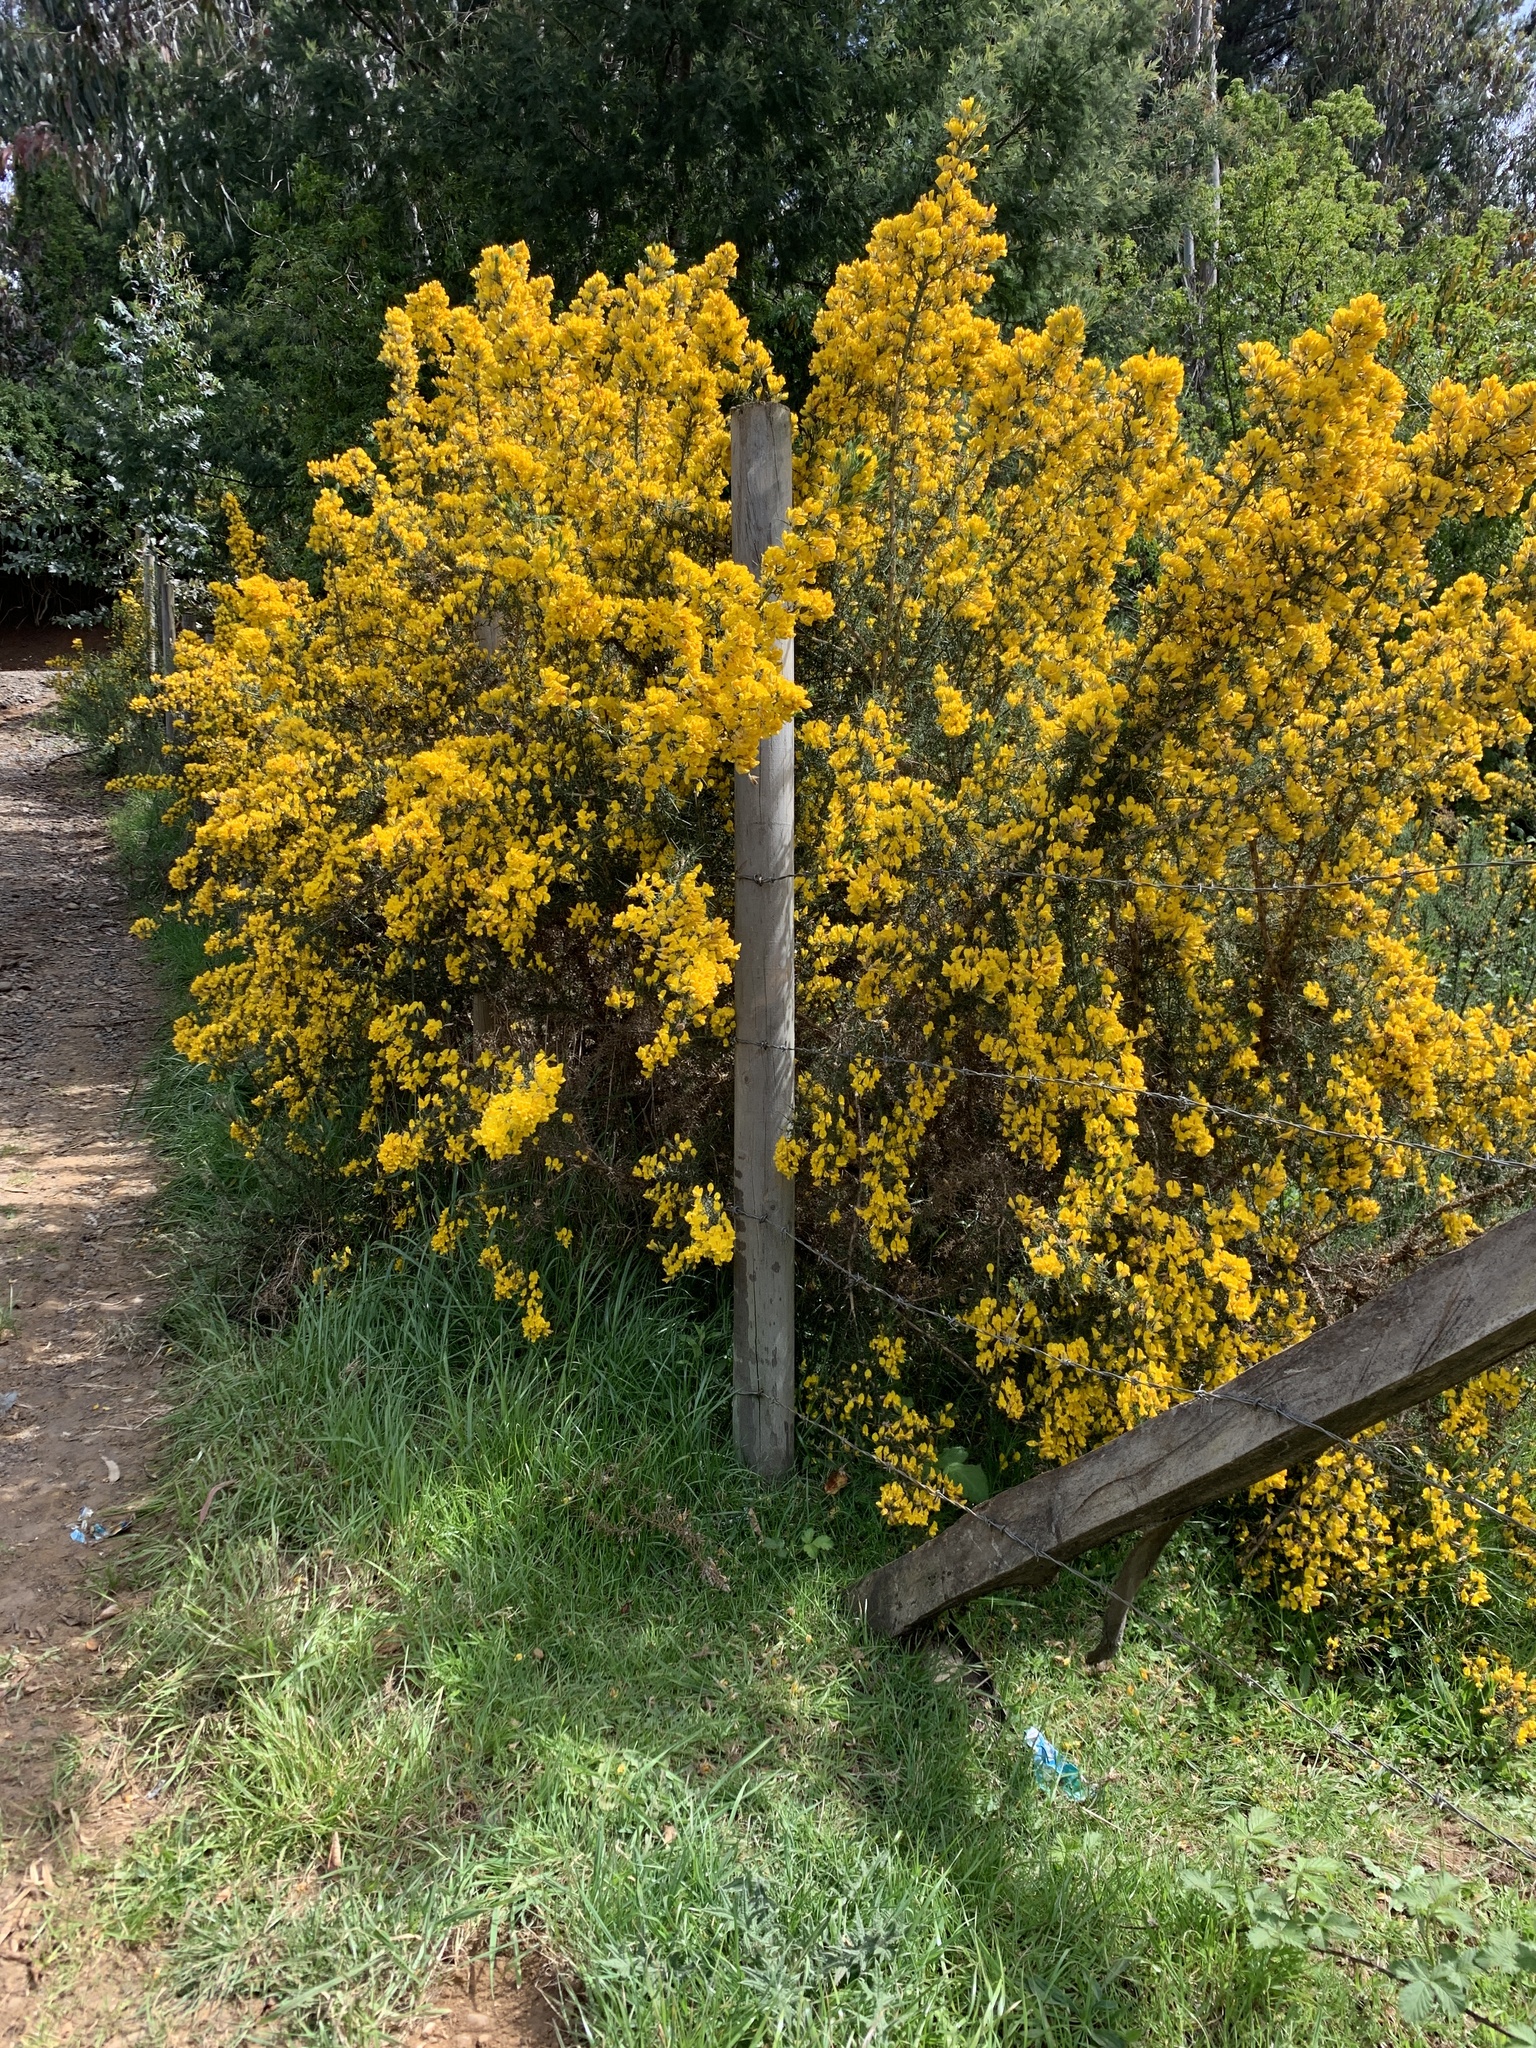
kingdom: Plantae
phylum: Tracheophyta
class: Magnoliopsida
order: Fabales
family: Fabaceae
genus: Ulex
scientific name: Ulex europaeus
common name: Common gorse
